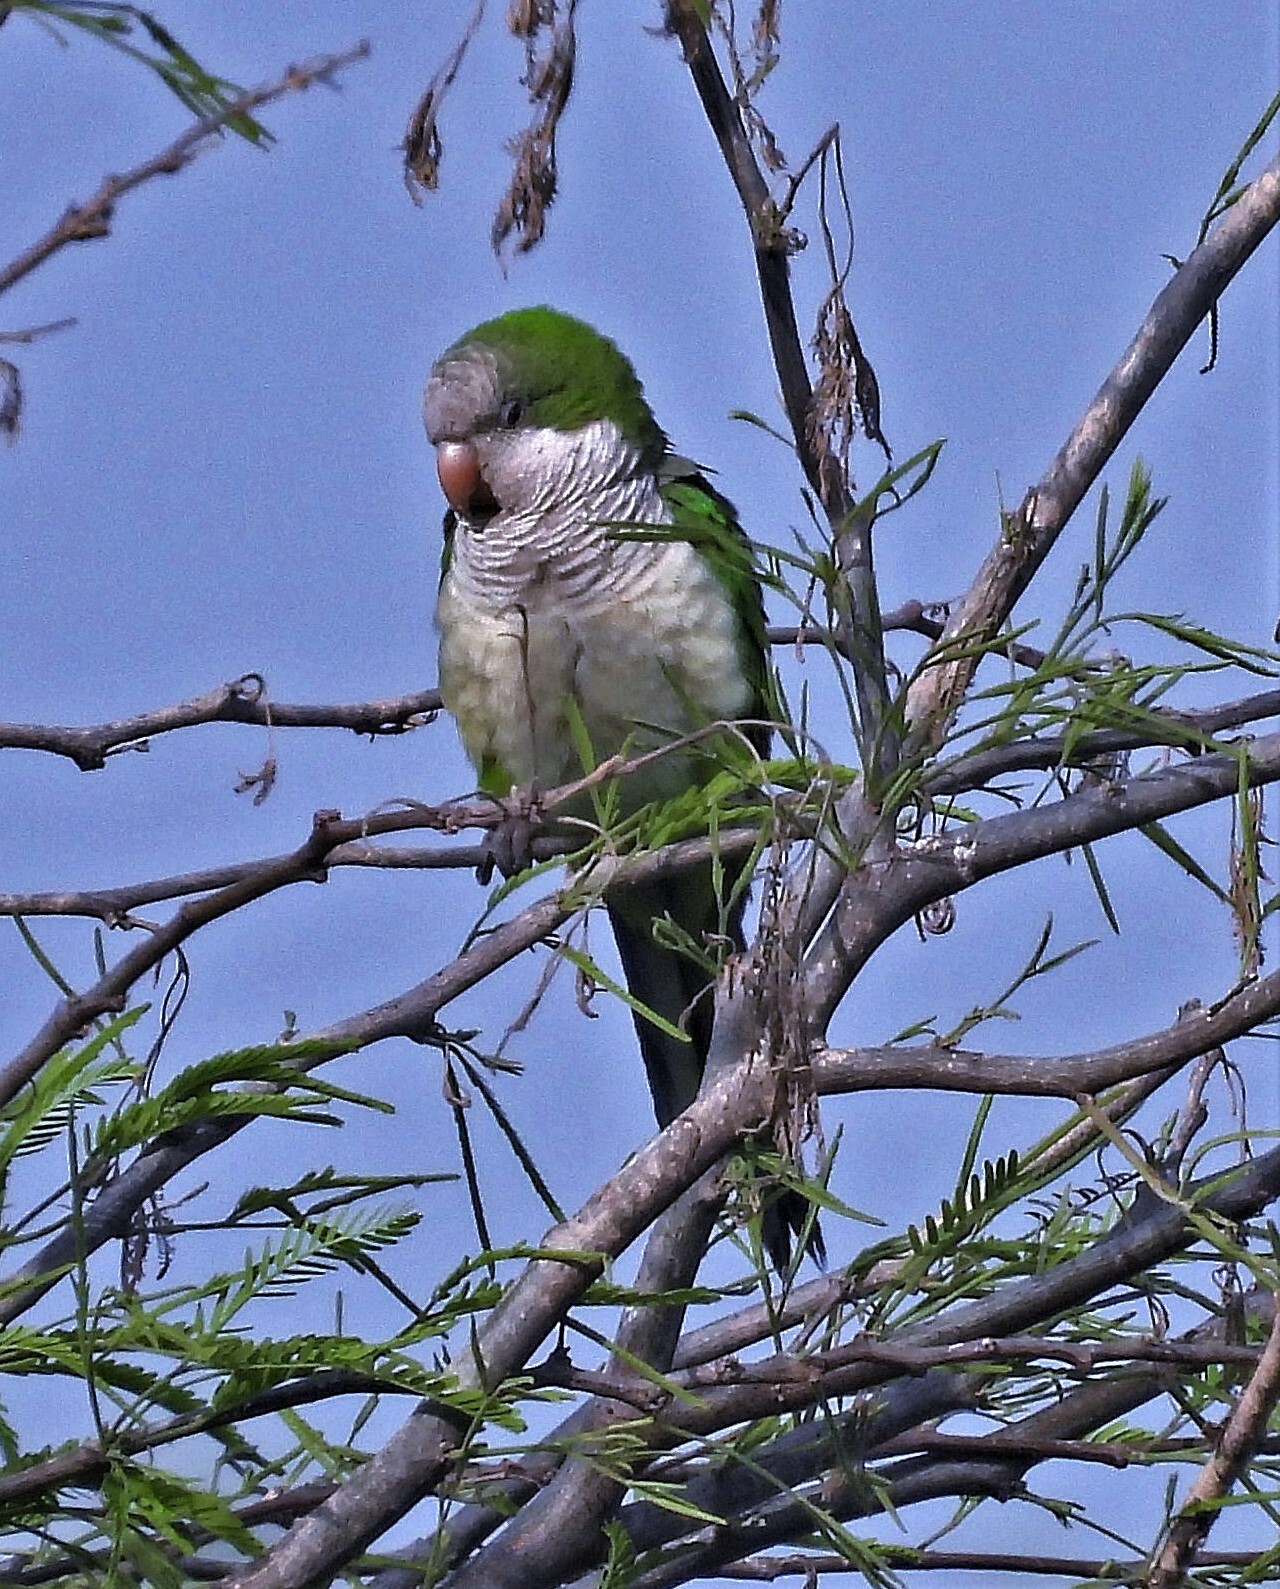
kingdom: Animalia
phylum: Chordata
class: Aves
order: Psittaciformes
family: Psittacidae
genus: Myiopsitta
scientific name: Myiopsitta monachus
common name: Monk parakeet
